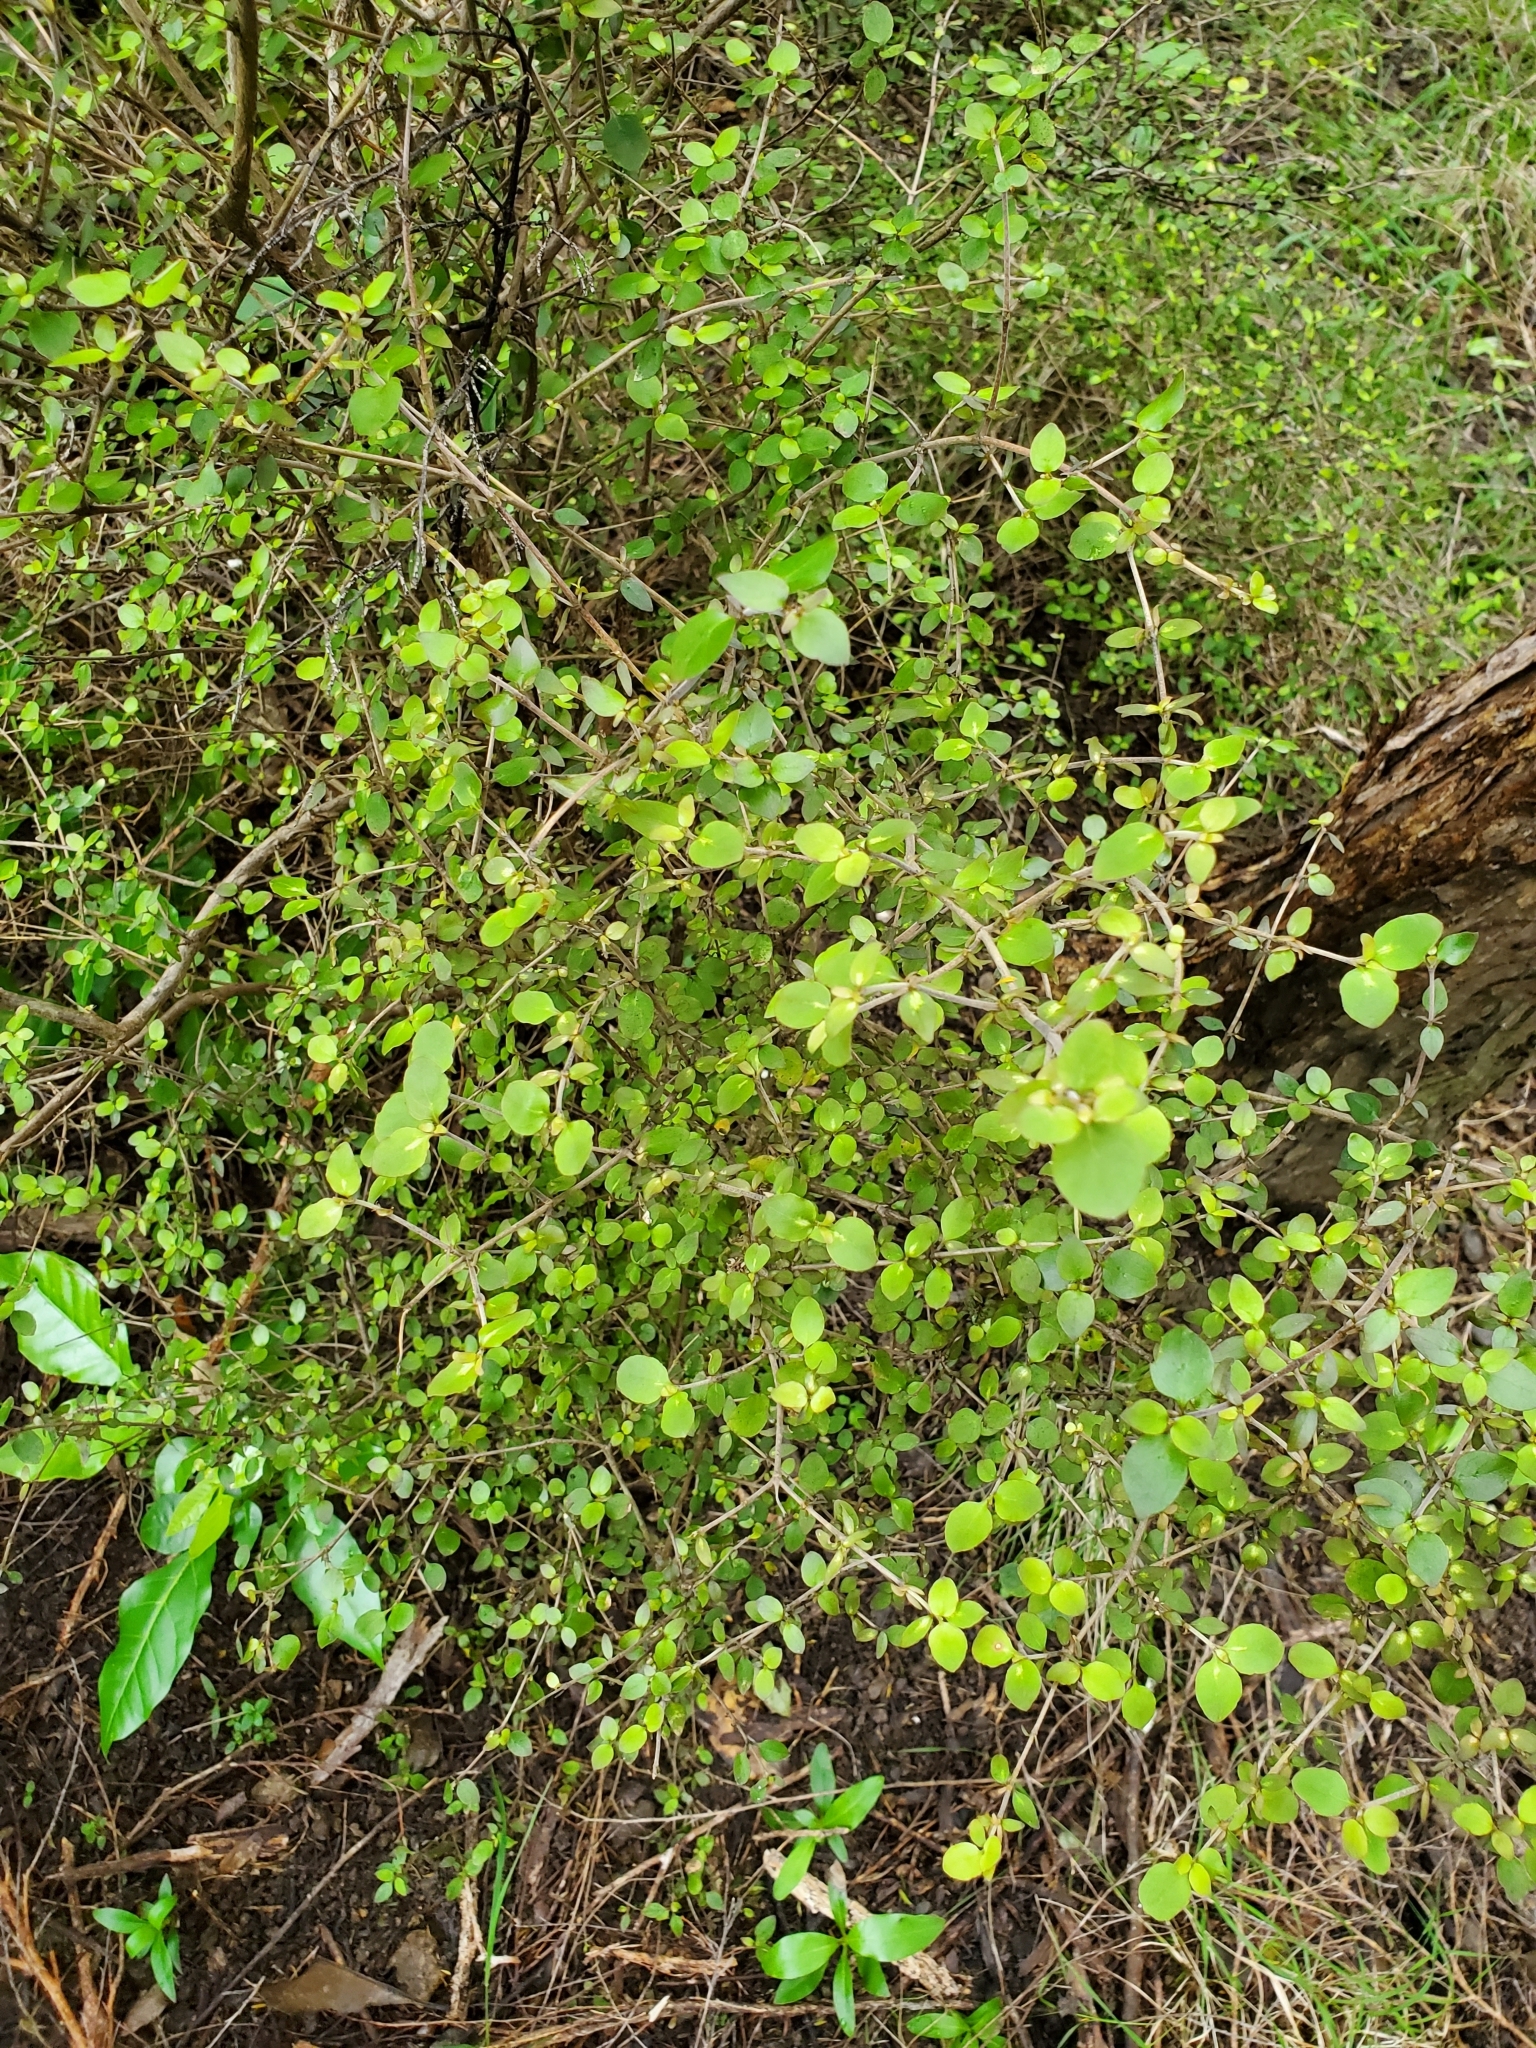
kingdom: Plantae
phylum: Tracheophyta
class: Magnoliopsida
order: Gentianales
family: Rubiaceae
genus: Coprosma
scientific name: Coprosma rhamnoides
